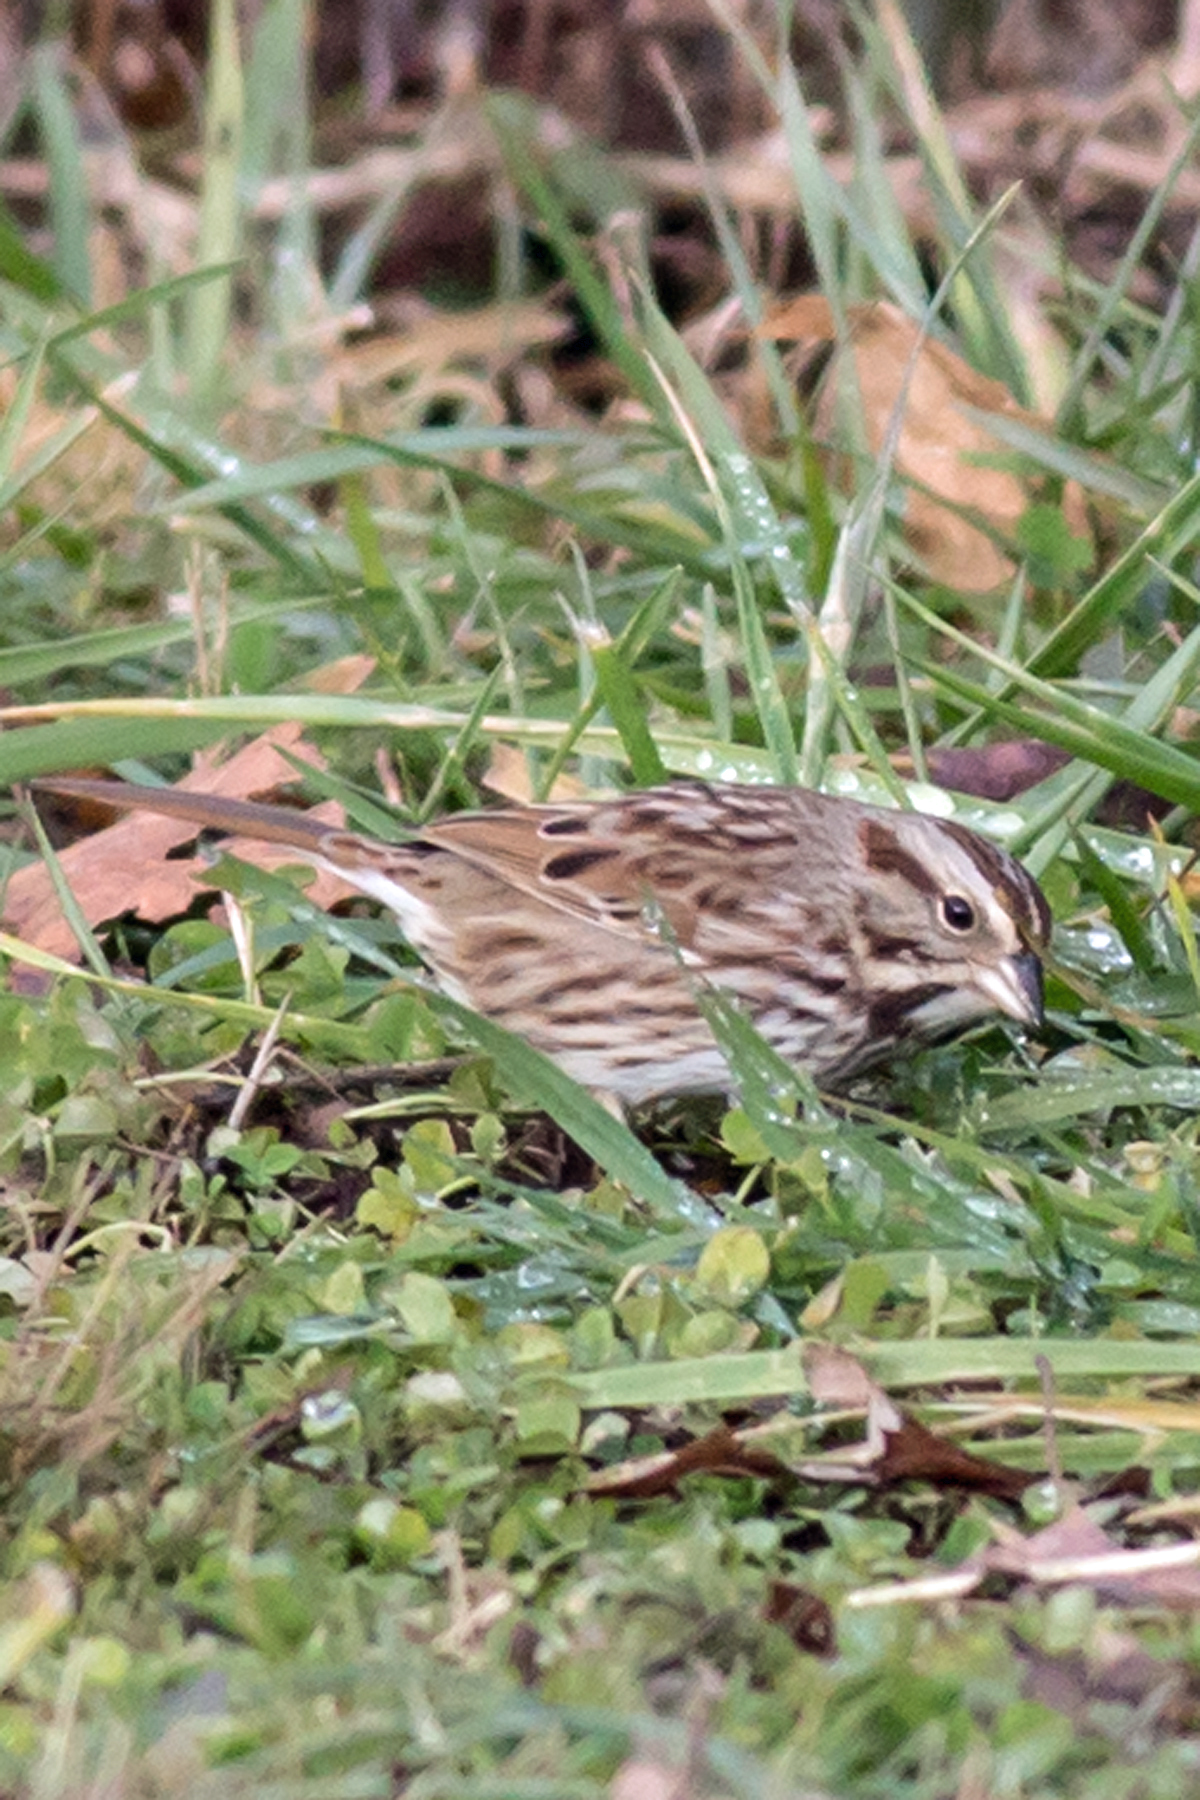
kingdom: Animalia
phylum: Chordata
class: Aves
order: Passeriformes
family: Passerellidae
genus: Melospiza
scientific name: Melospiza melodia
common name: Song sparrow
